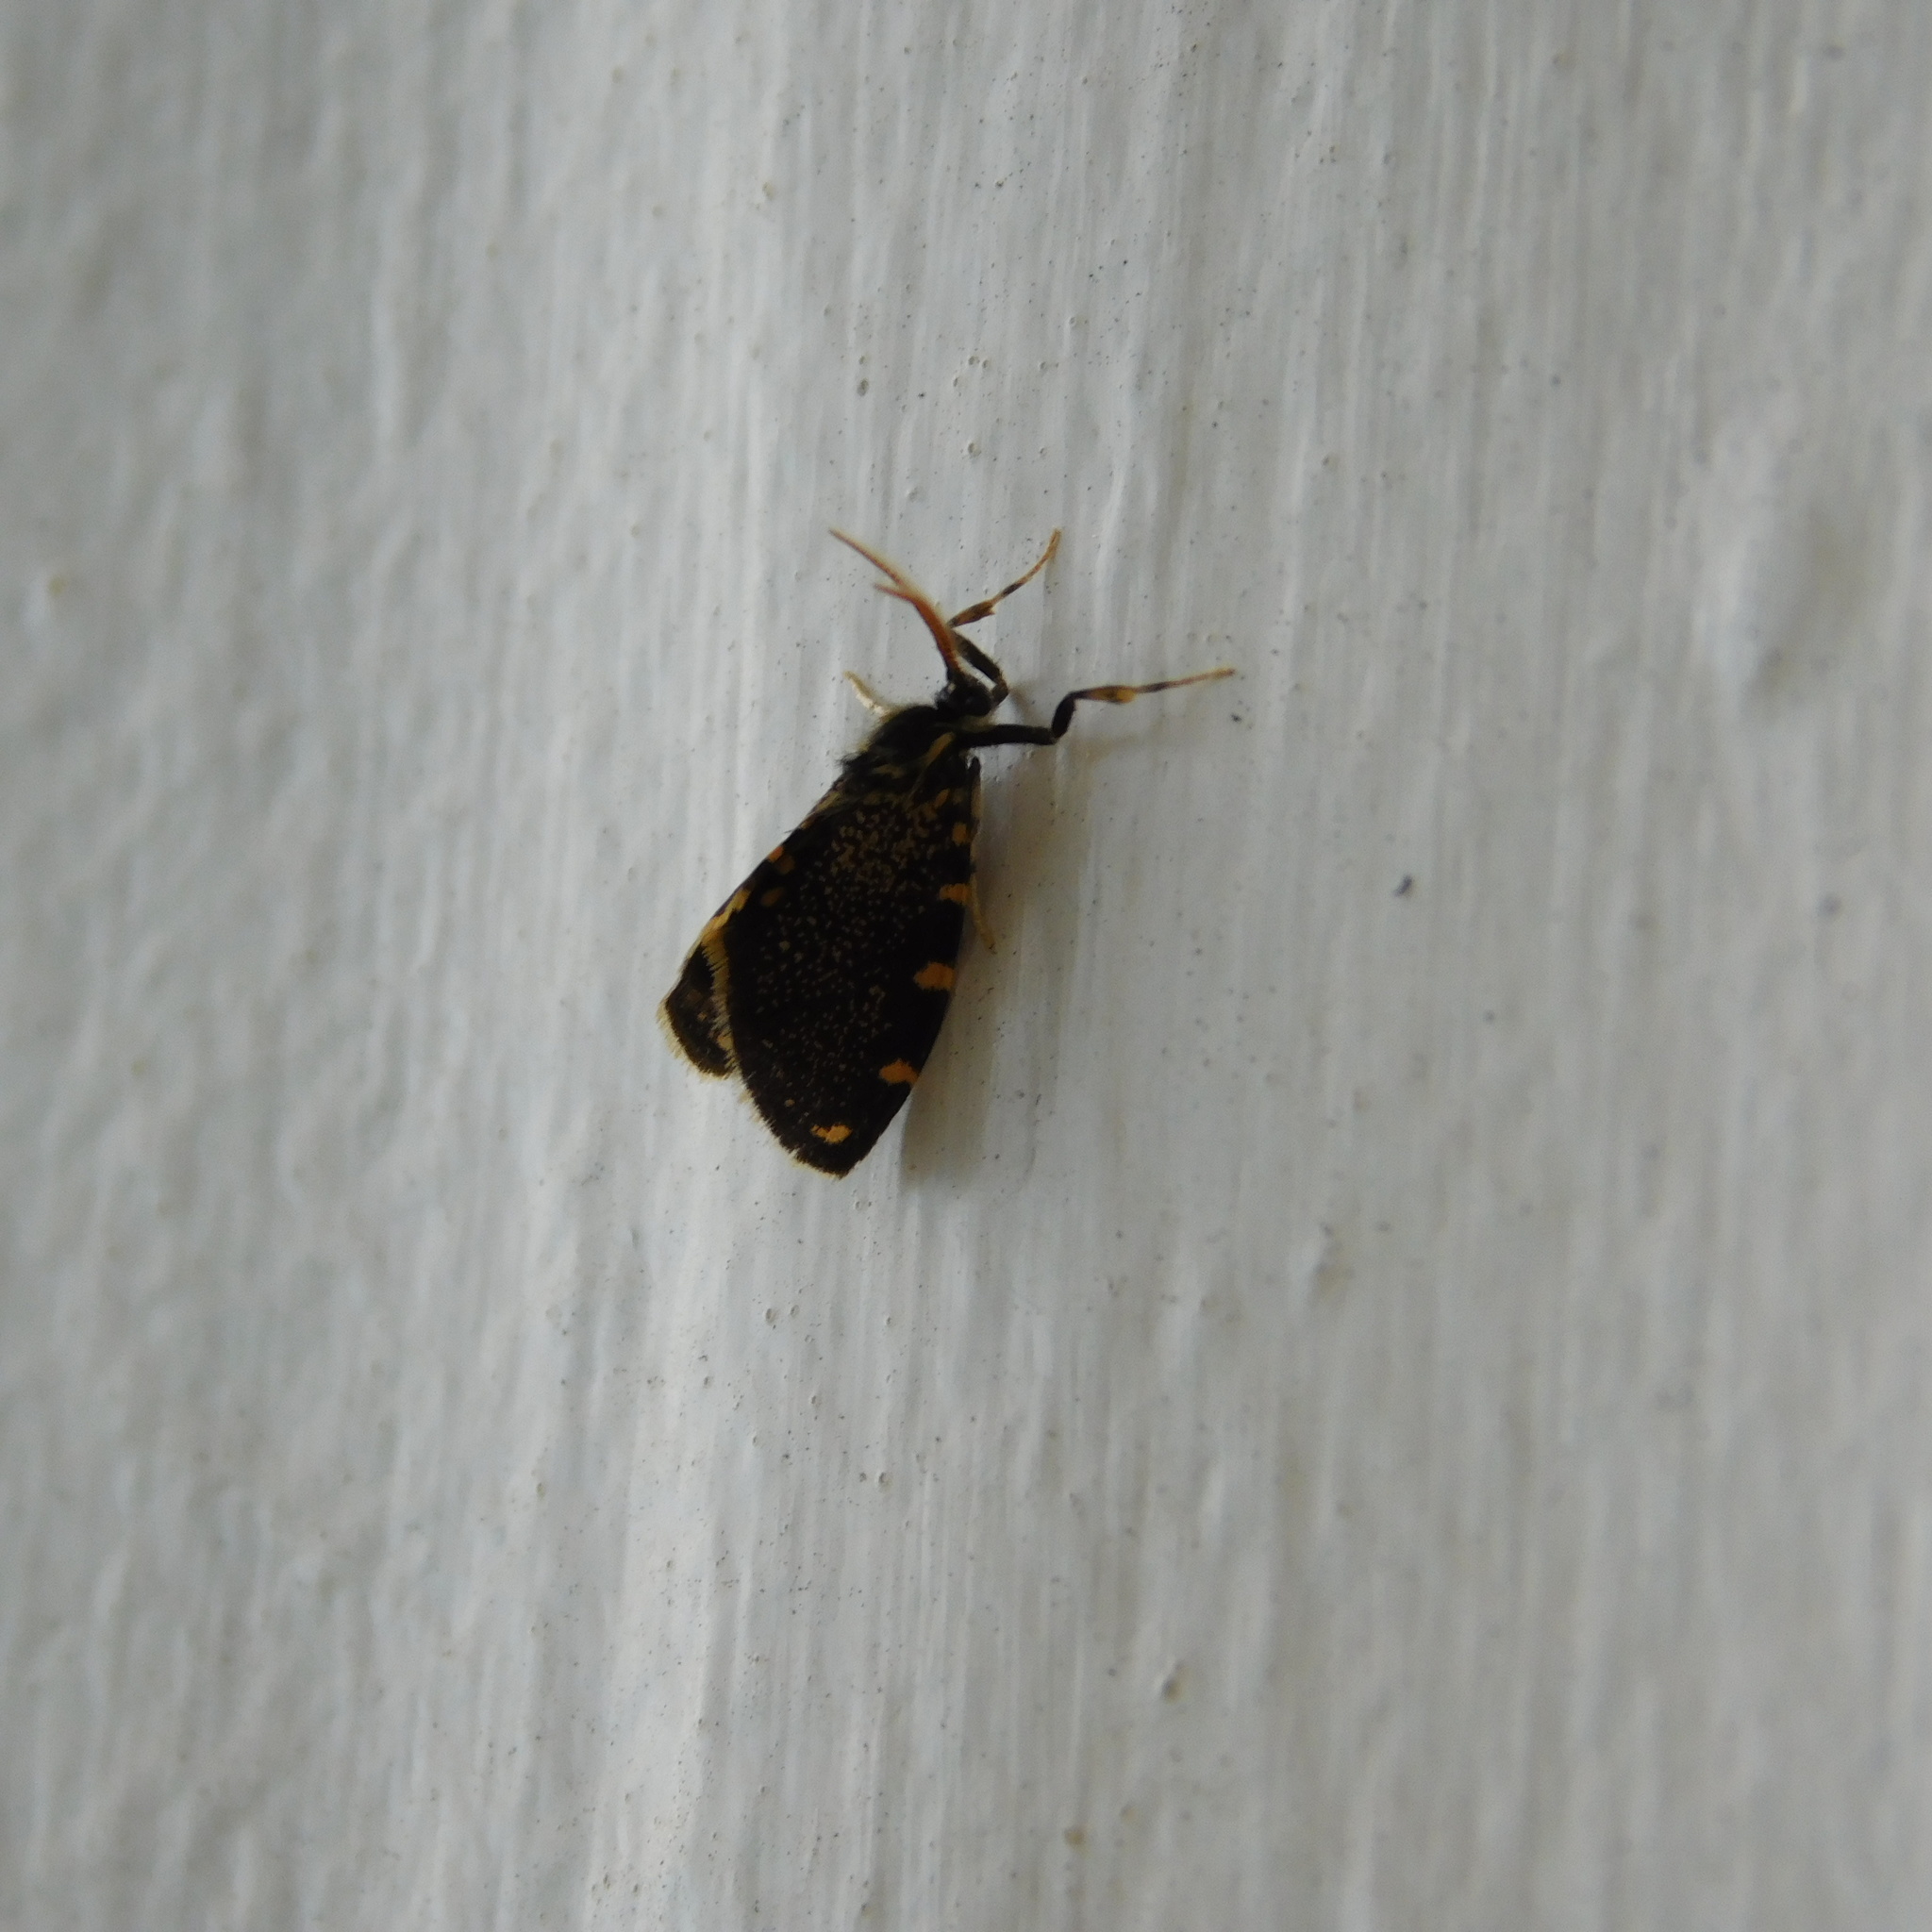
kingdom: Animalia
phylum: Arthropoda
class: Insecta
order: Lepidoptera
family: Psychidae
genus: Cebysa
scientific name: Cebysa leucotelus
